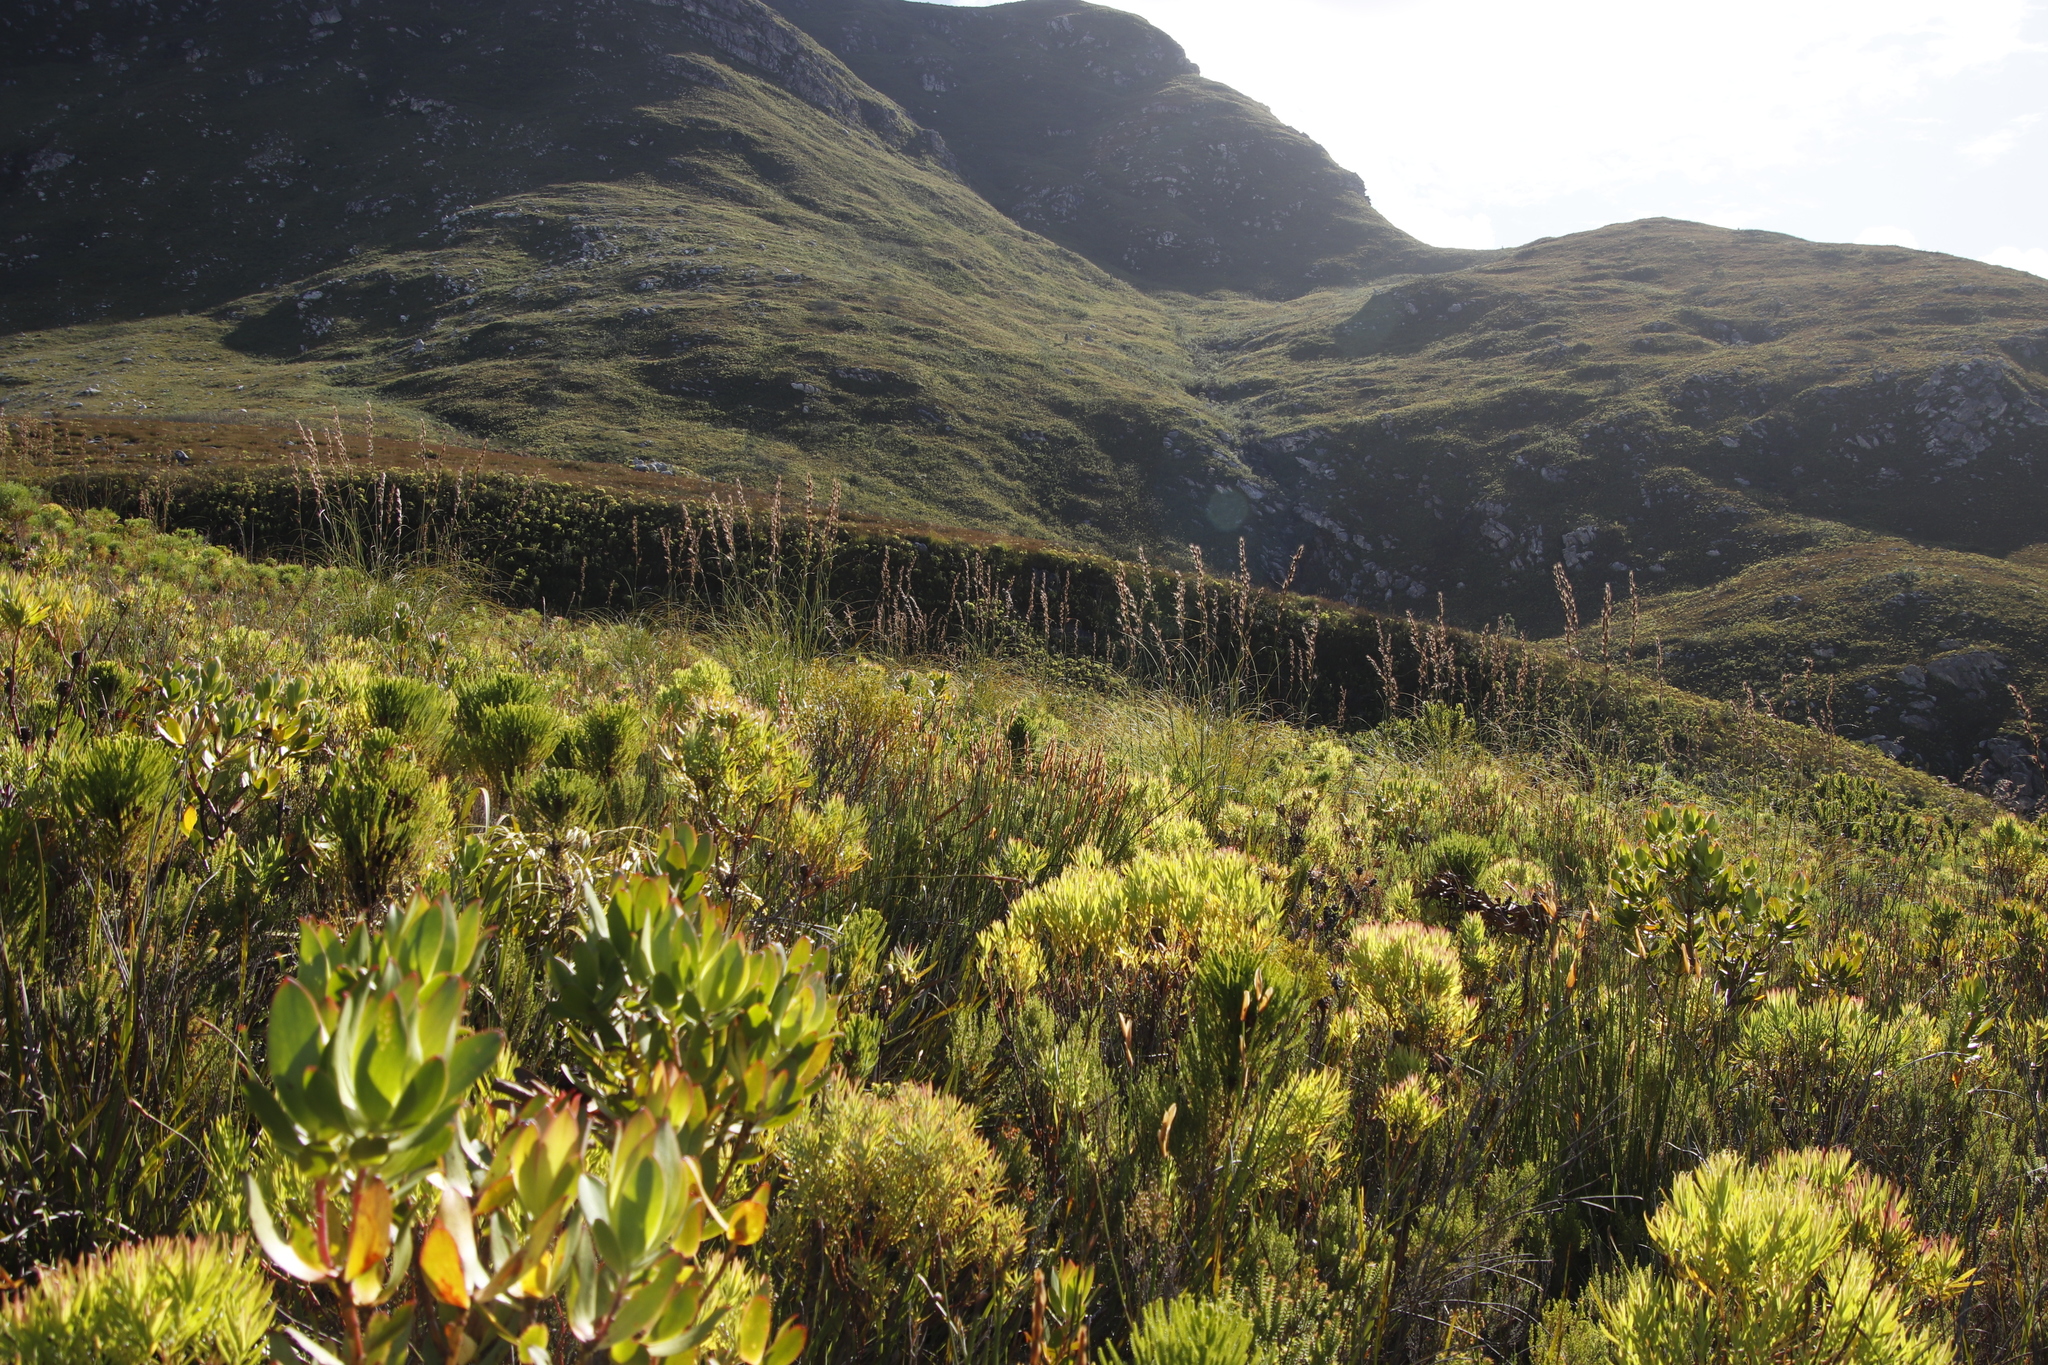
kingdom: Plantae
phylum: Tracheophyta
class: Magnoliopsida
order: Proteales
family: Proteaceae
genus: Leucadendron
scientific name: Leucadendron xanthoconus
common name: Sickle-leaf conebush
